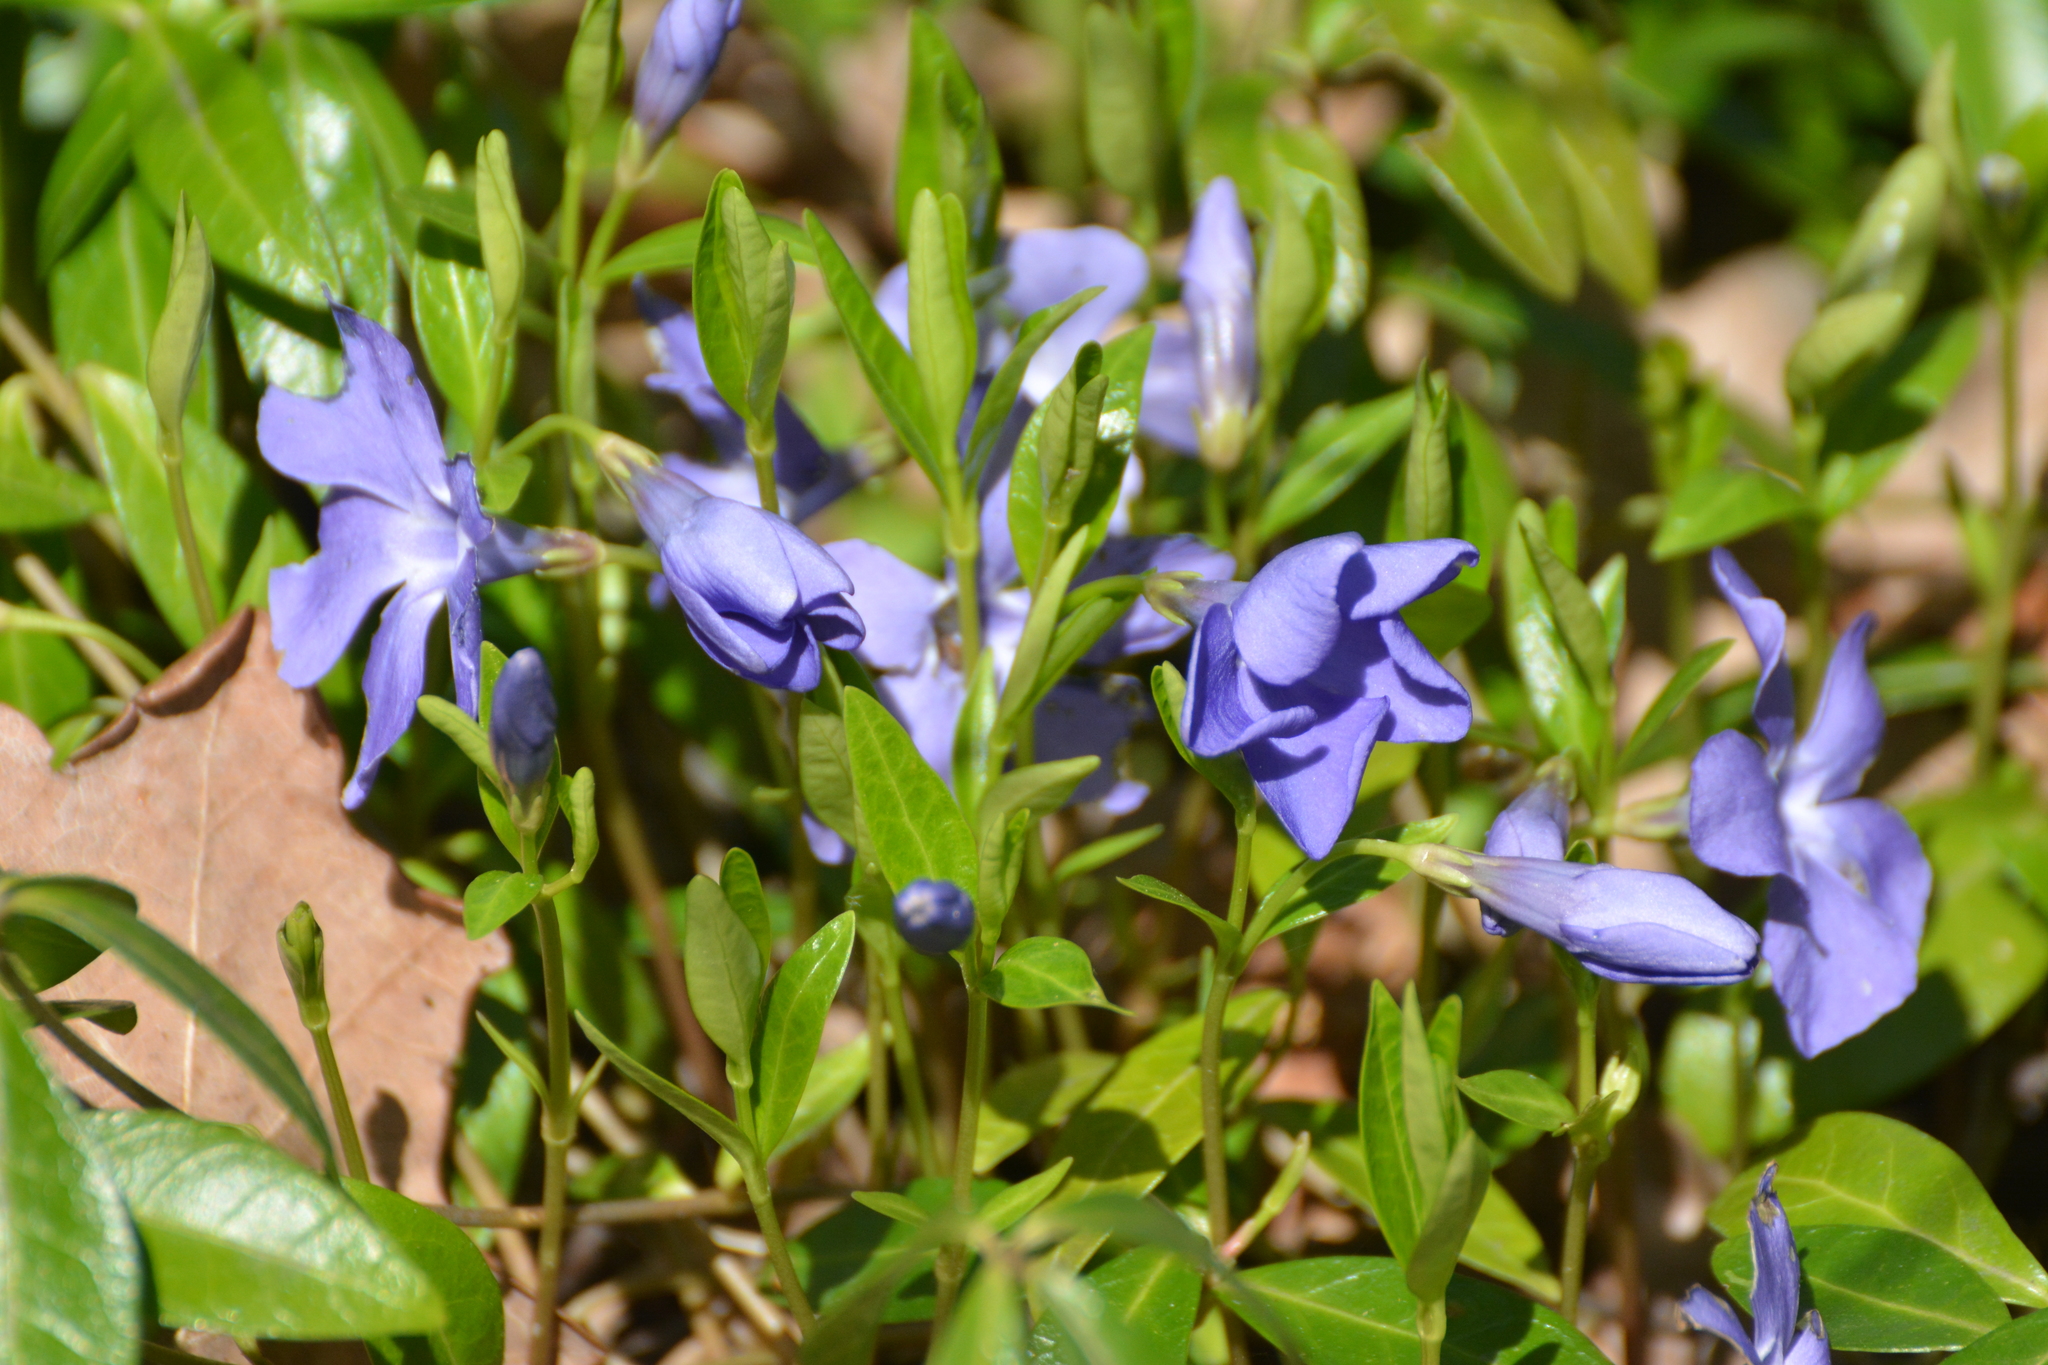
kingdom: Plantae
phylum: Tracheophyta
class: Magnoliopsida
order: Gentianales
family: Apocynaceae
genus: Vinca
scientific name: Vinca minor
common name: Lesser periwinkle
